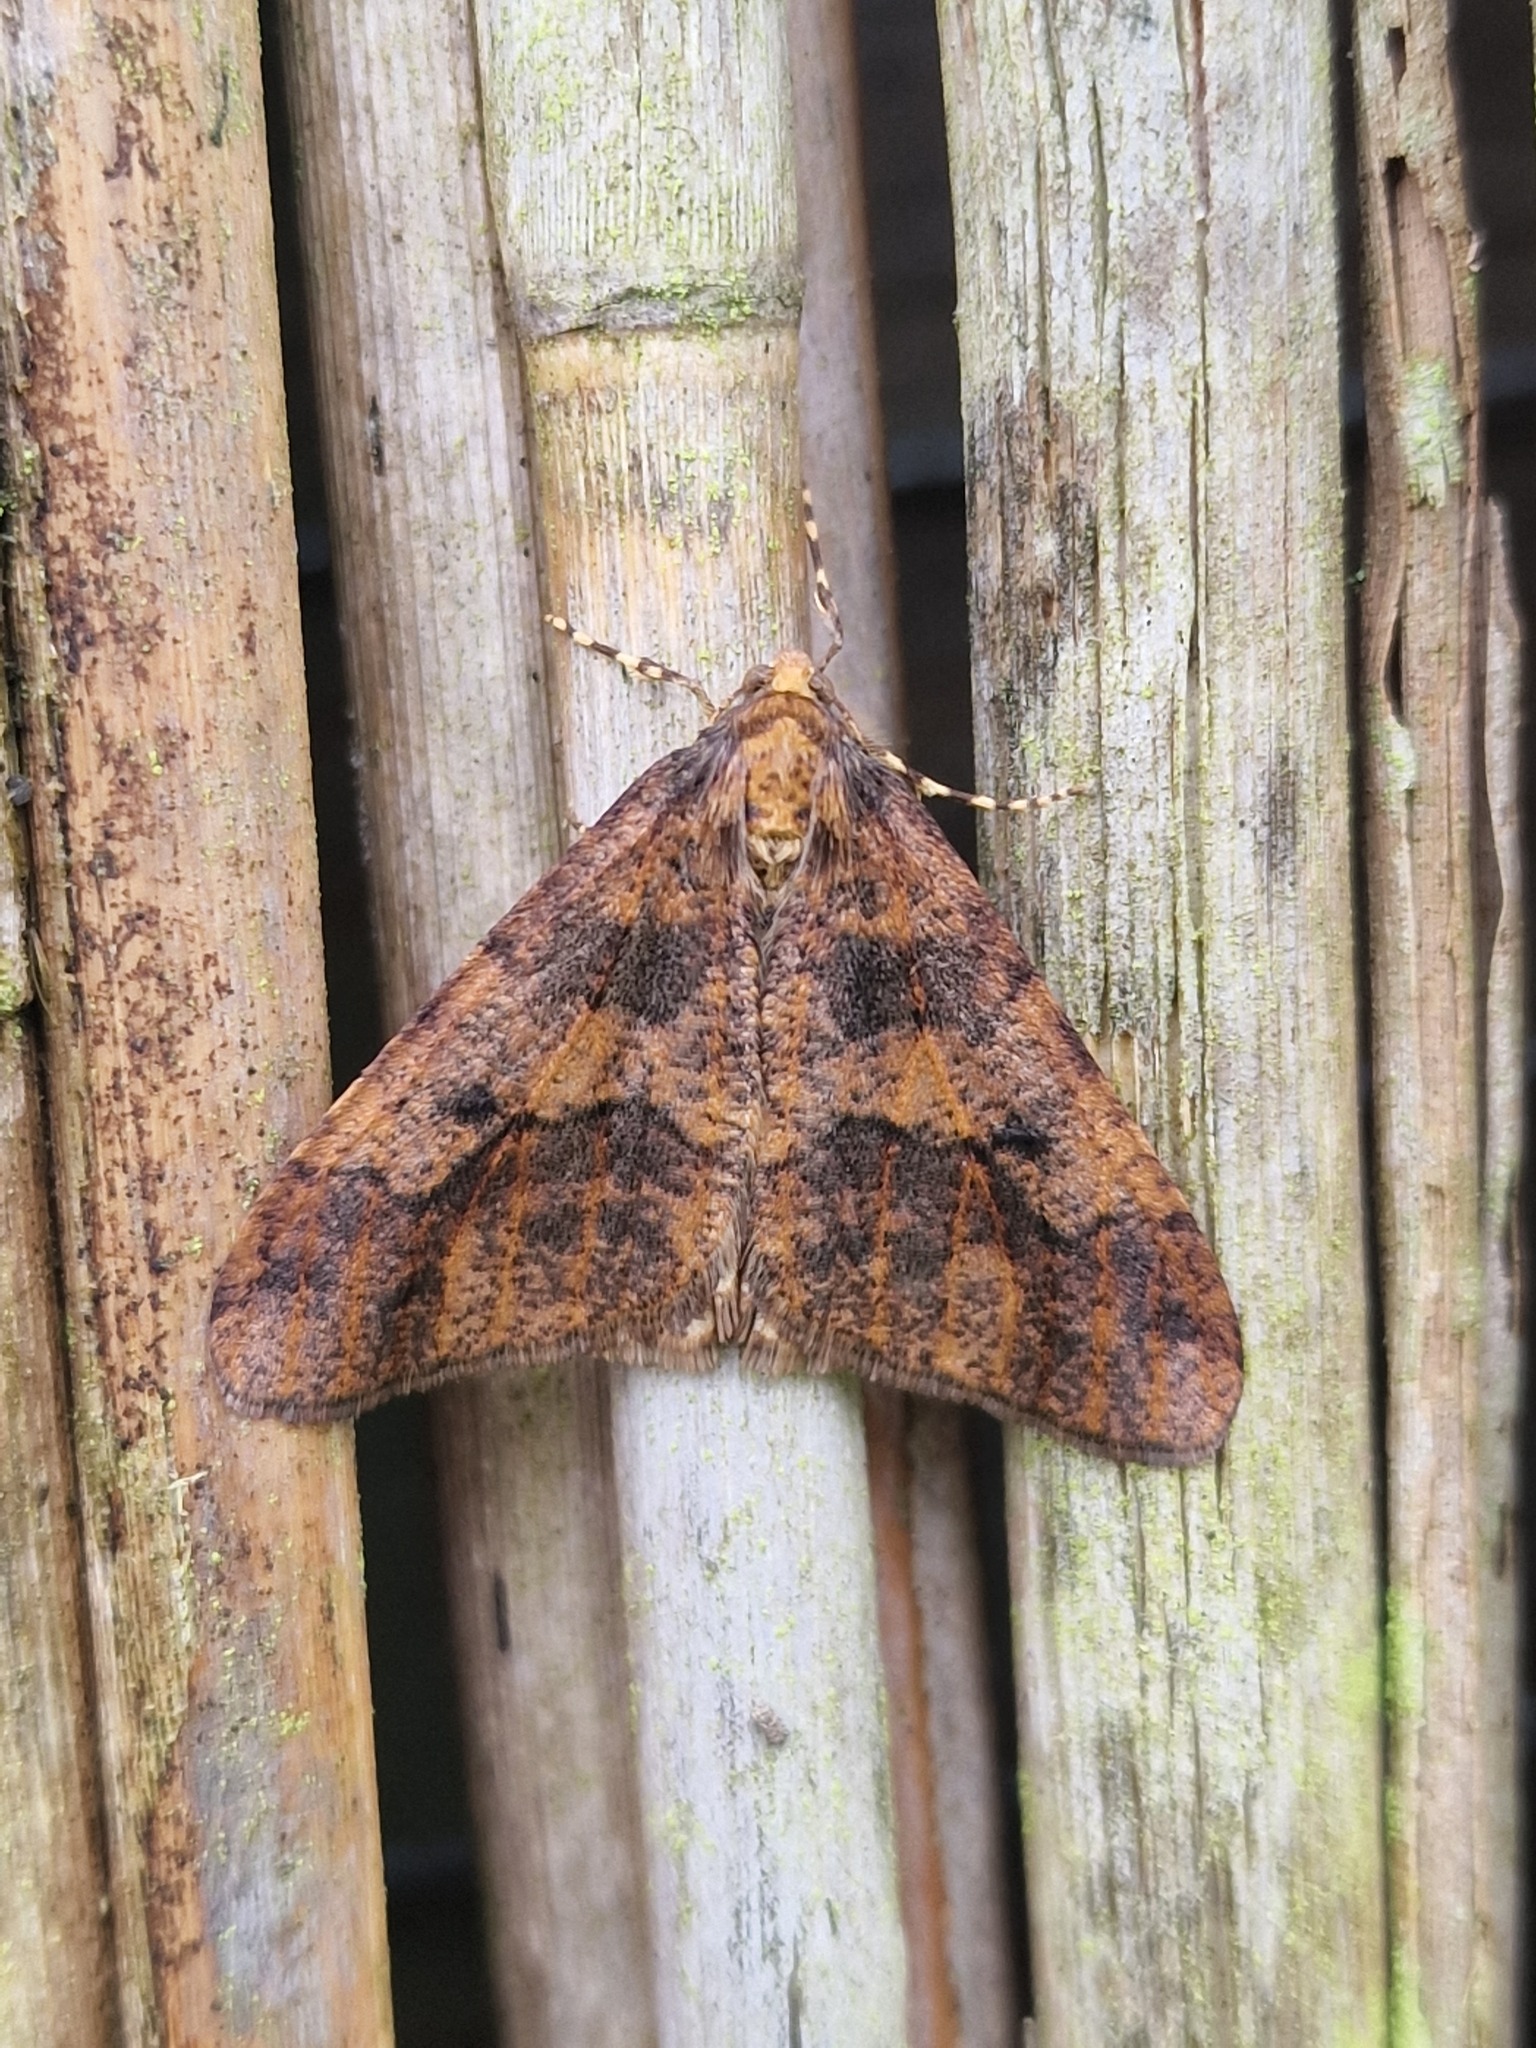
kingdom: Animalia
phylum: Arthropoda
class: Insecta
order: Lepidoptera
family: Geometridae
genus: Erannis
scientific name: Erannis defoliaria
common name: Mottled umber
